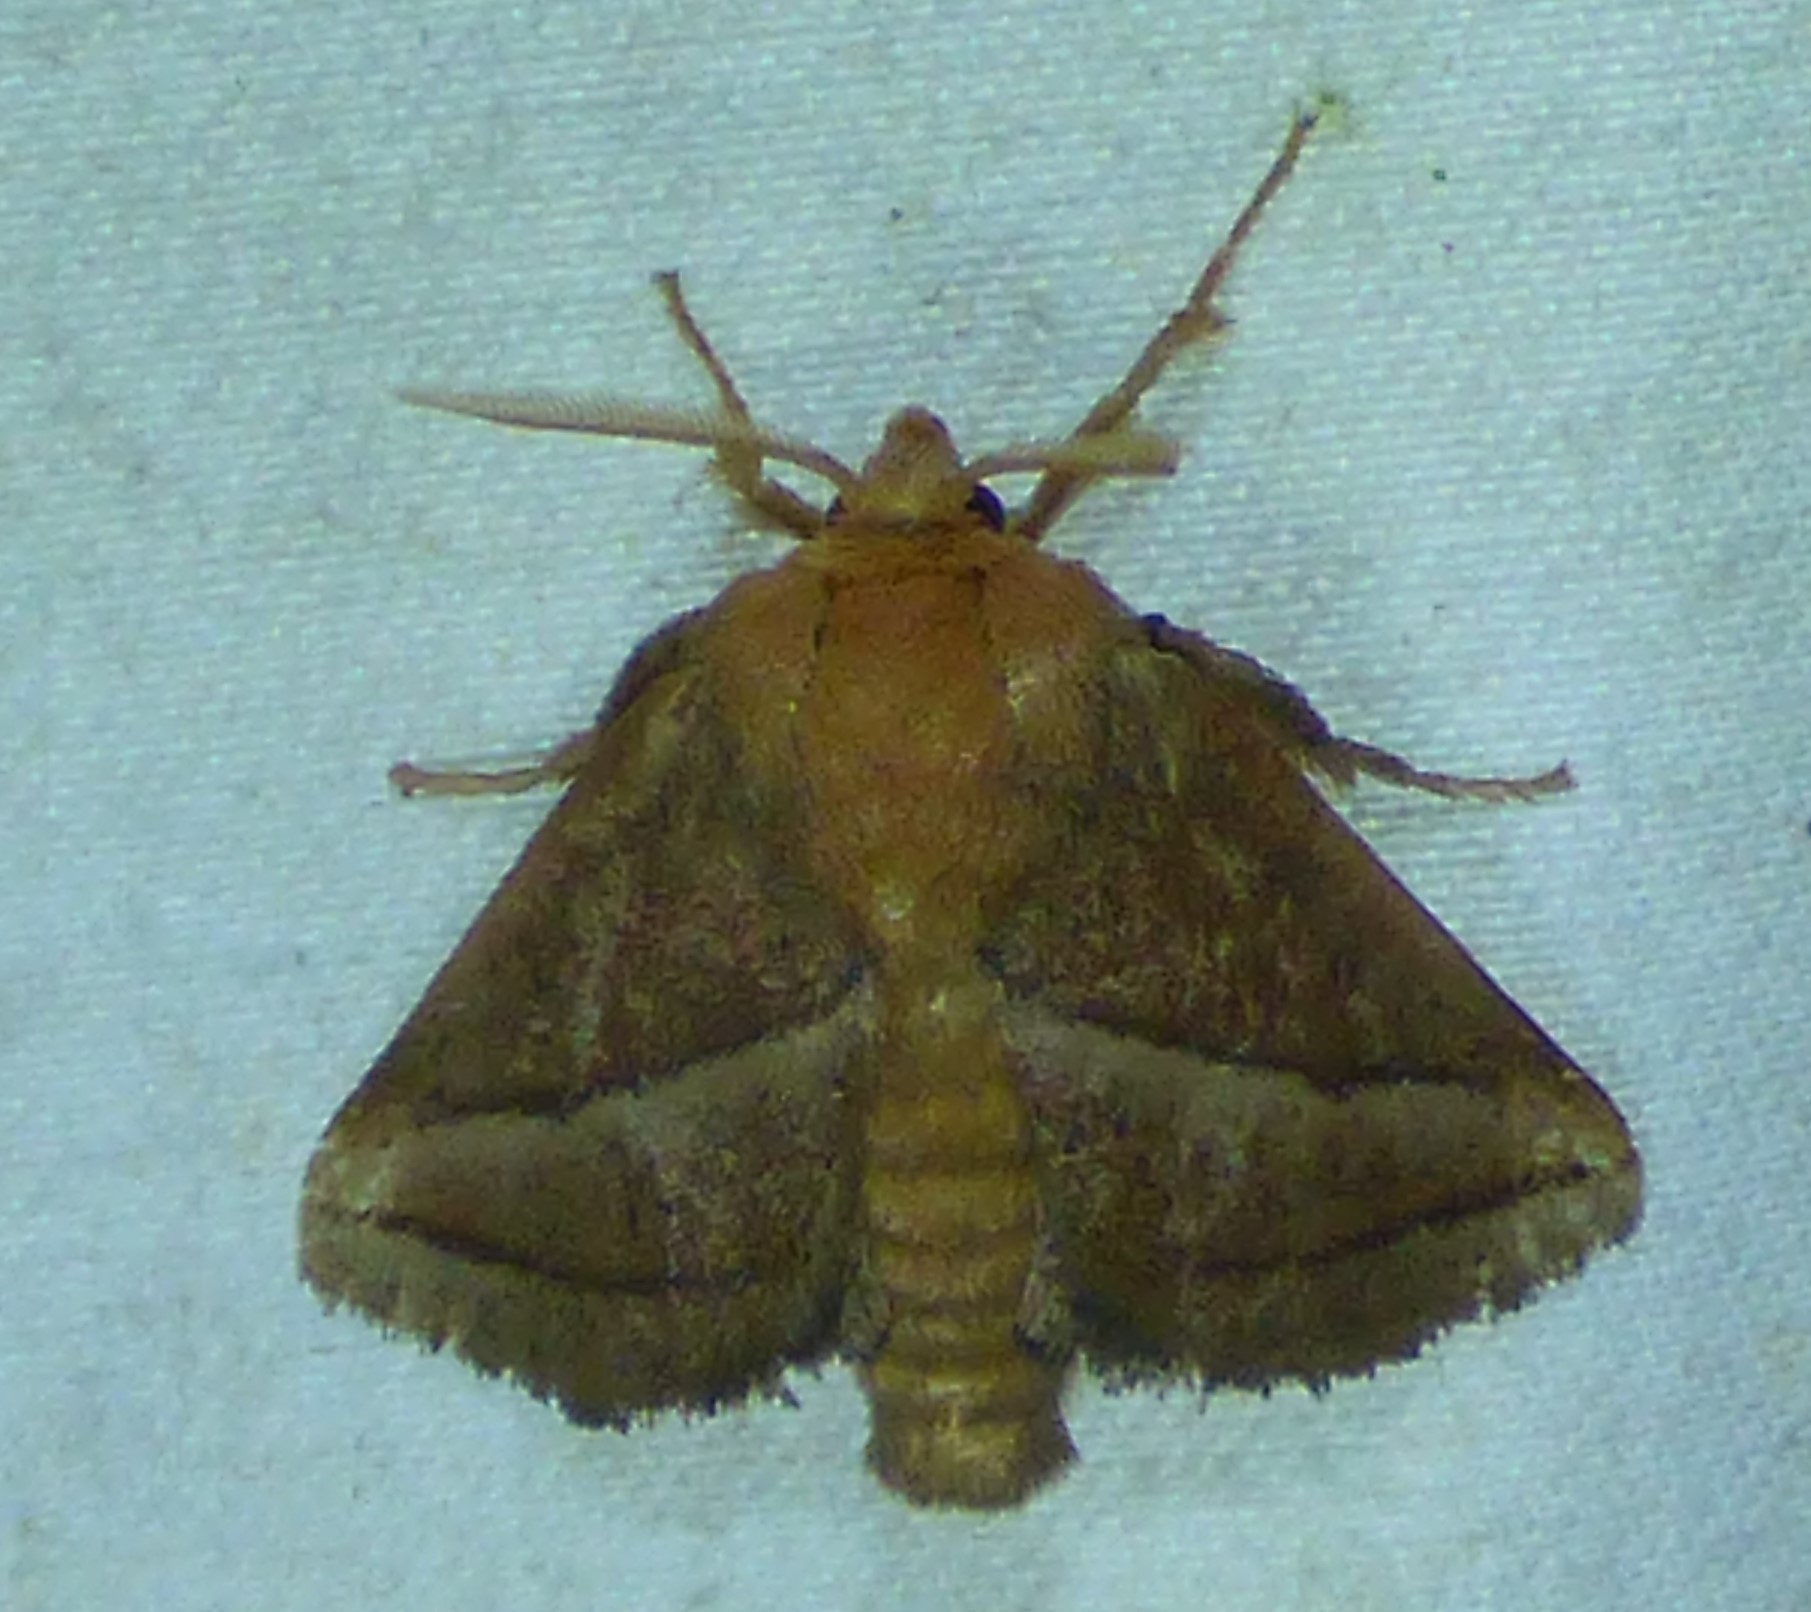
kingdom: Animalia
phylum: Arthropoda
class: Insecta
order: Lepidoptera
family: Limacodidae
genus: Natada
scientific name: Natada nasoni
